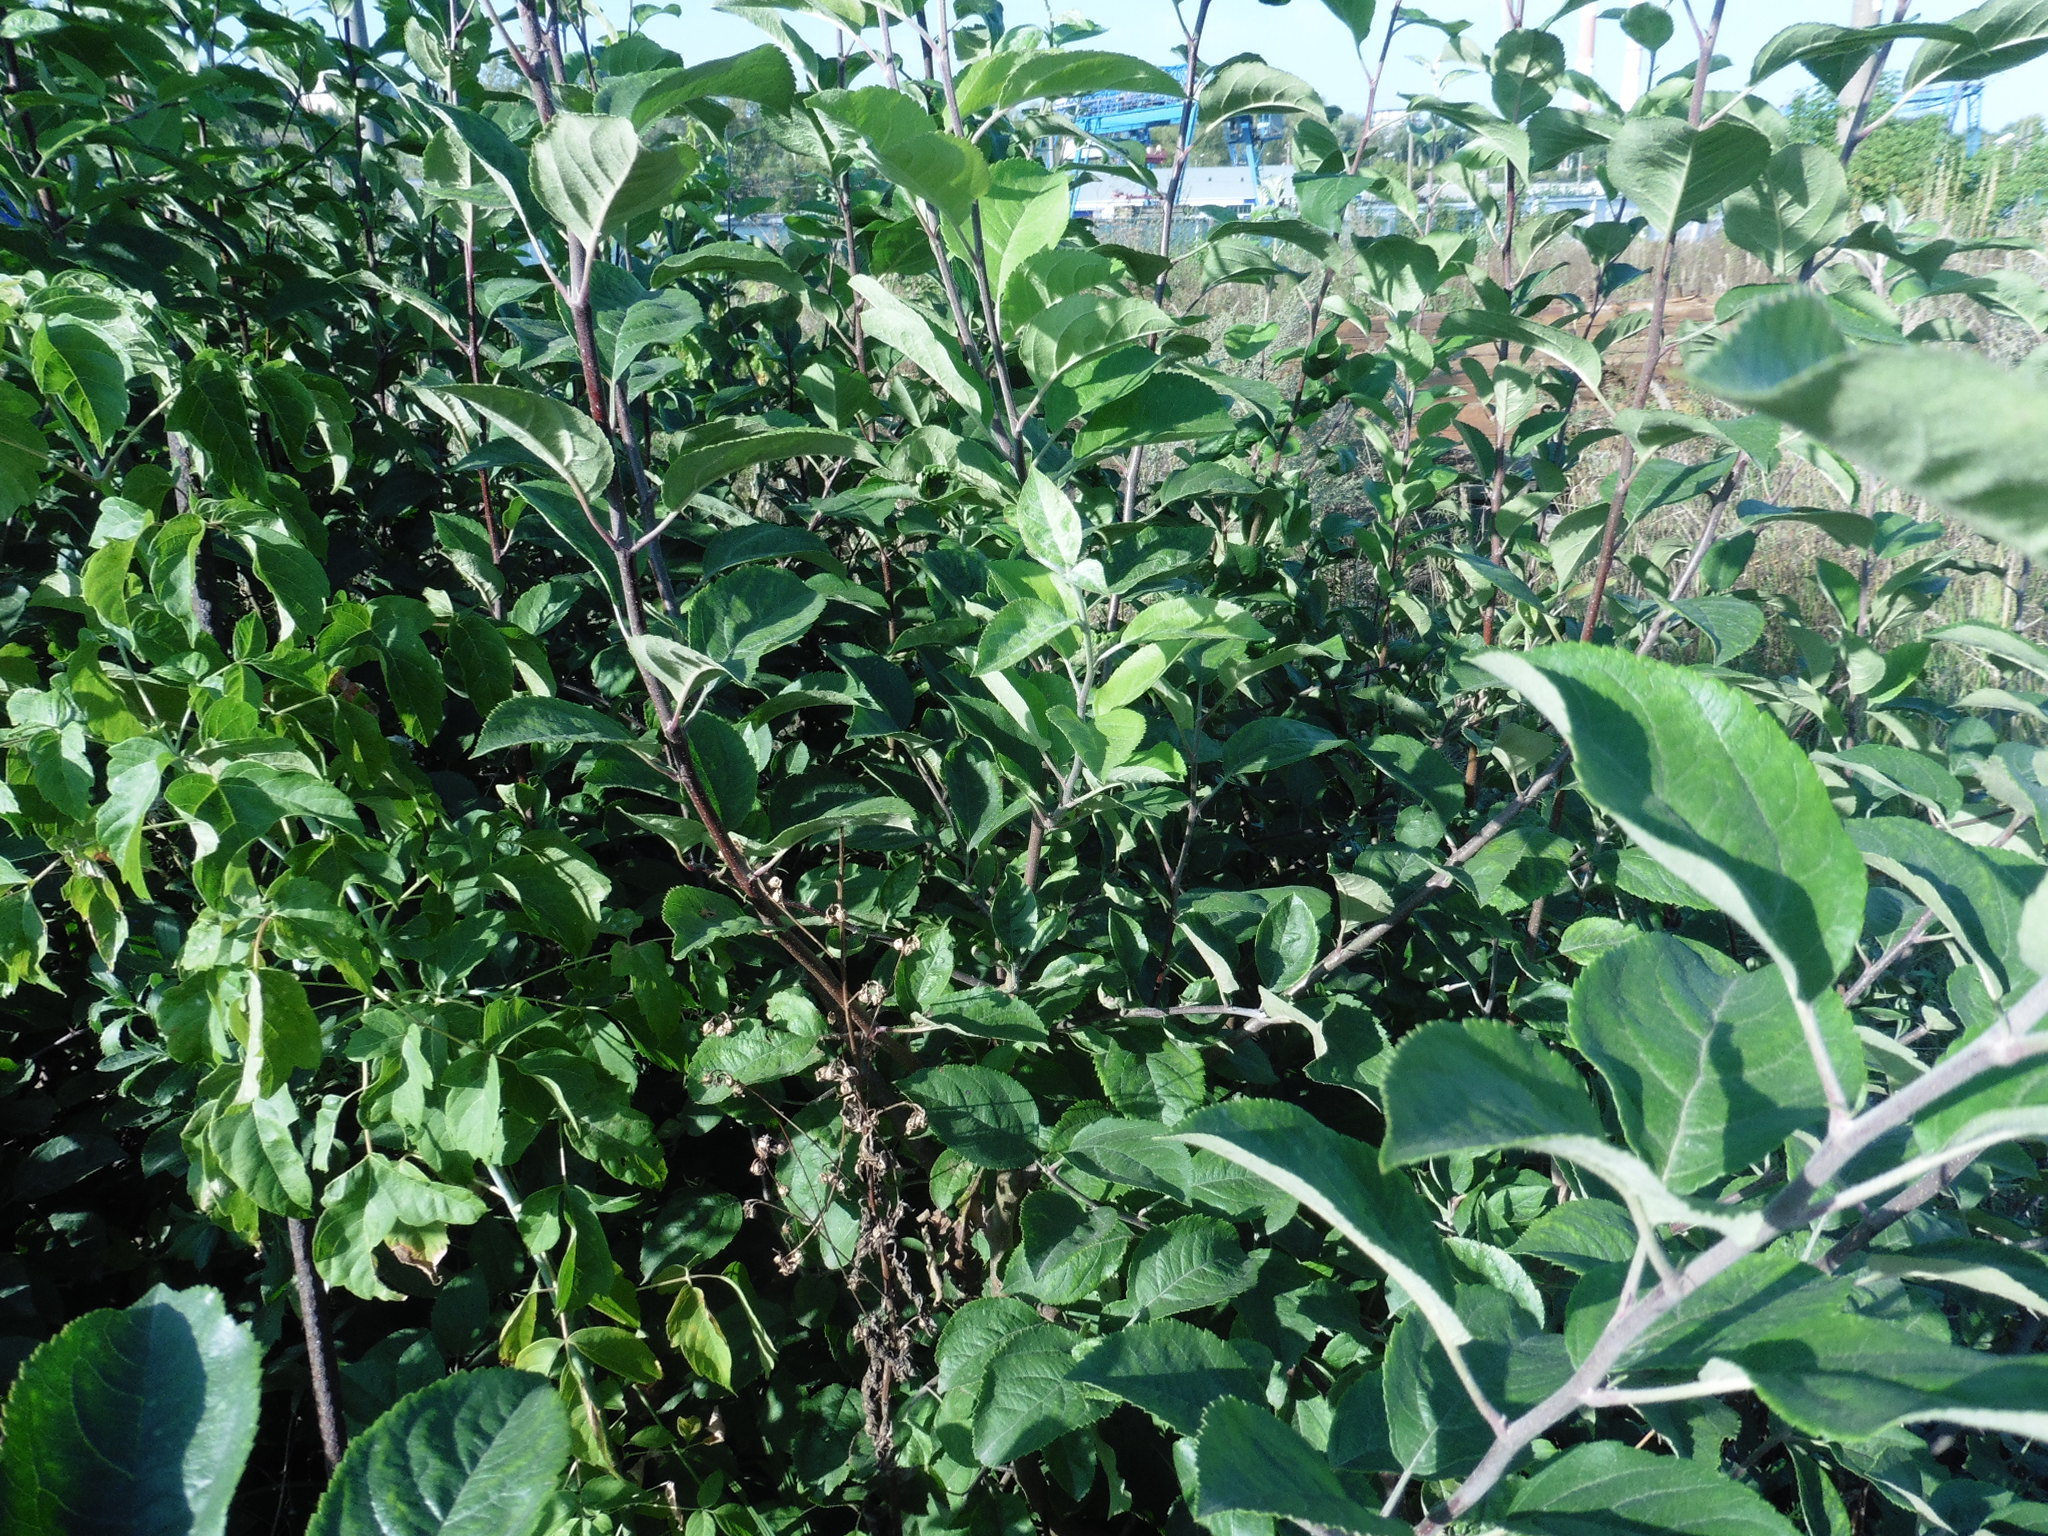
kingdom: Plantae
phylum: Tracheophyta
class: Magnoliopsida
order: Rosales
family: Rosaceae
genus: Malus
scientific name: Malus domestica
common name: Apple
